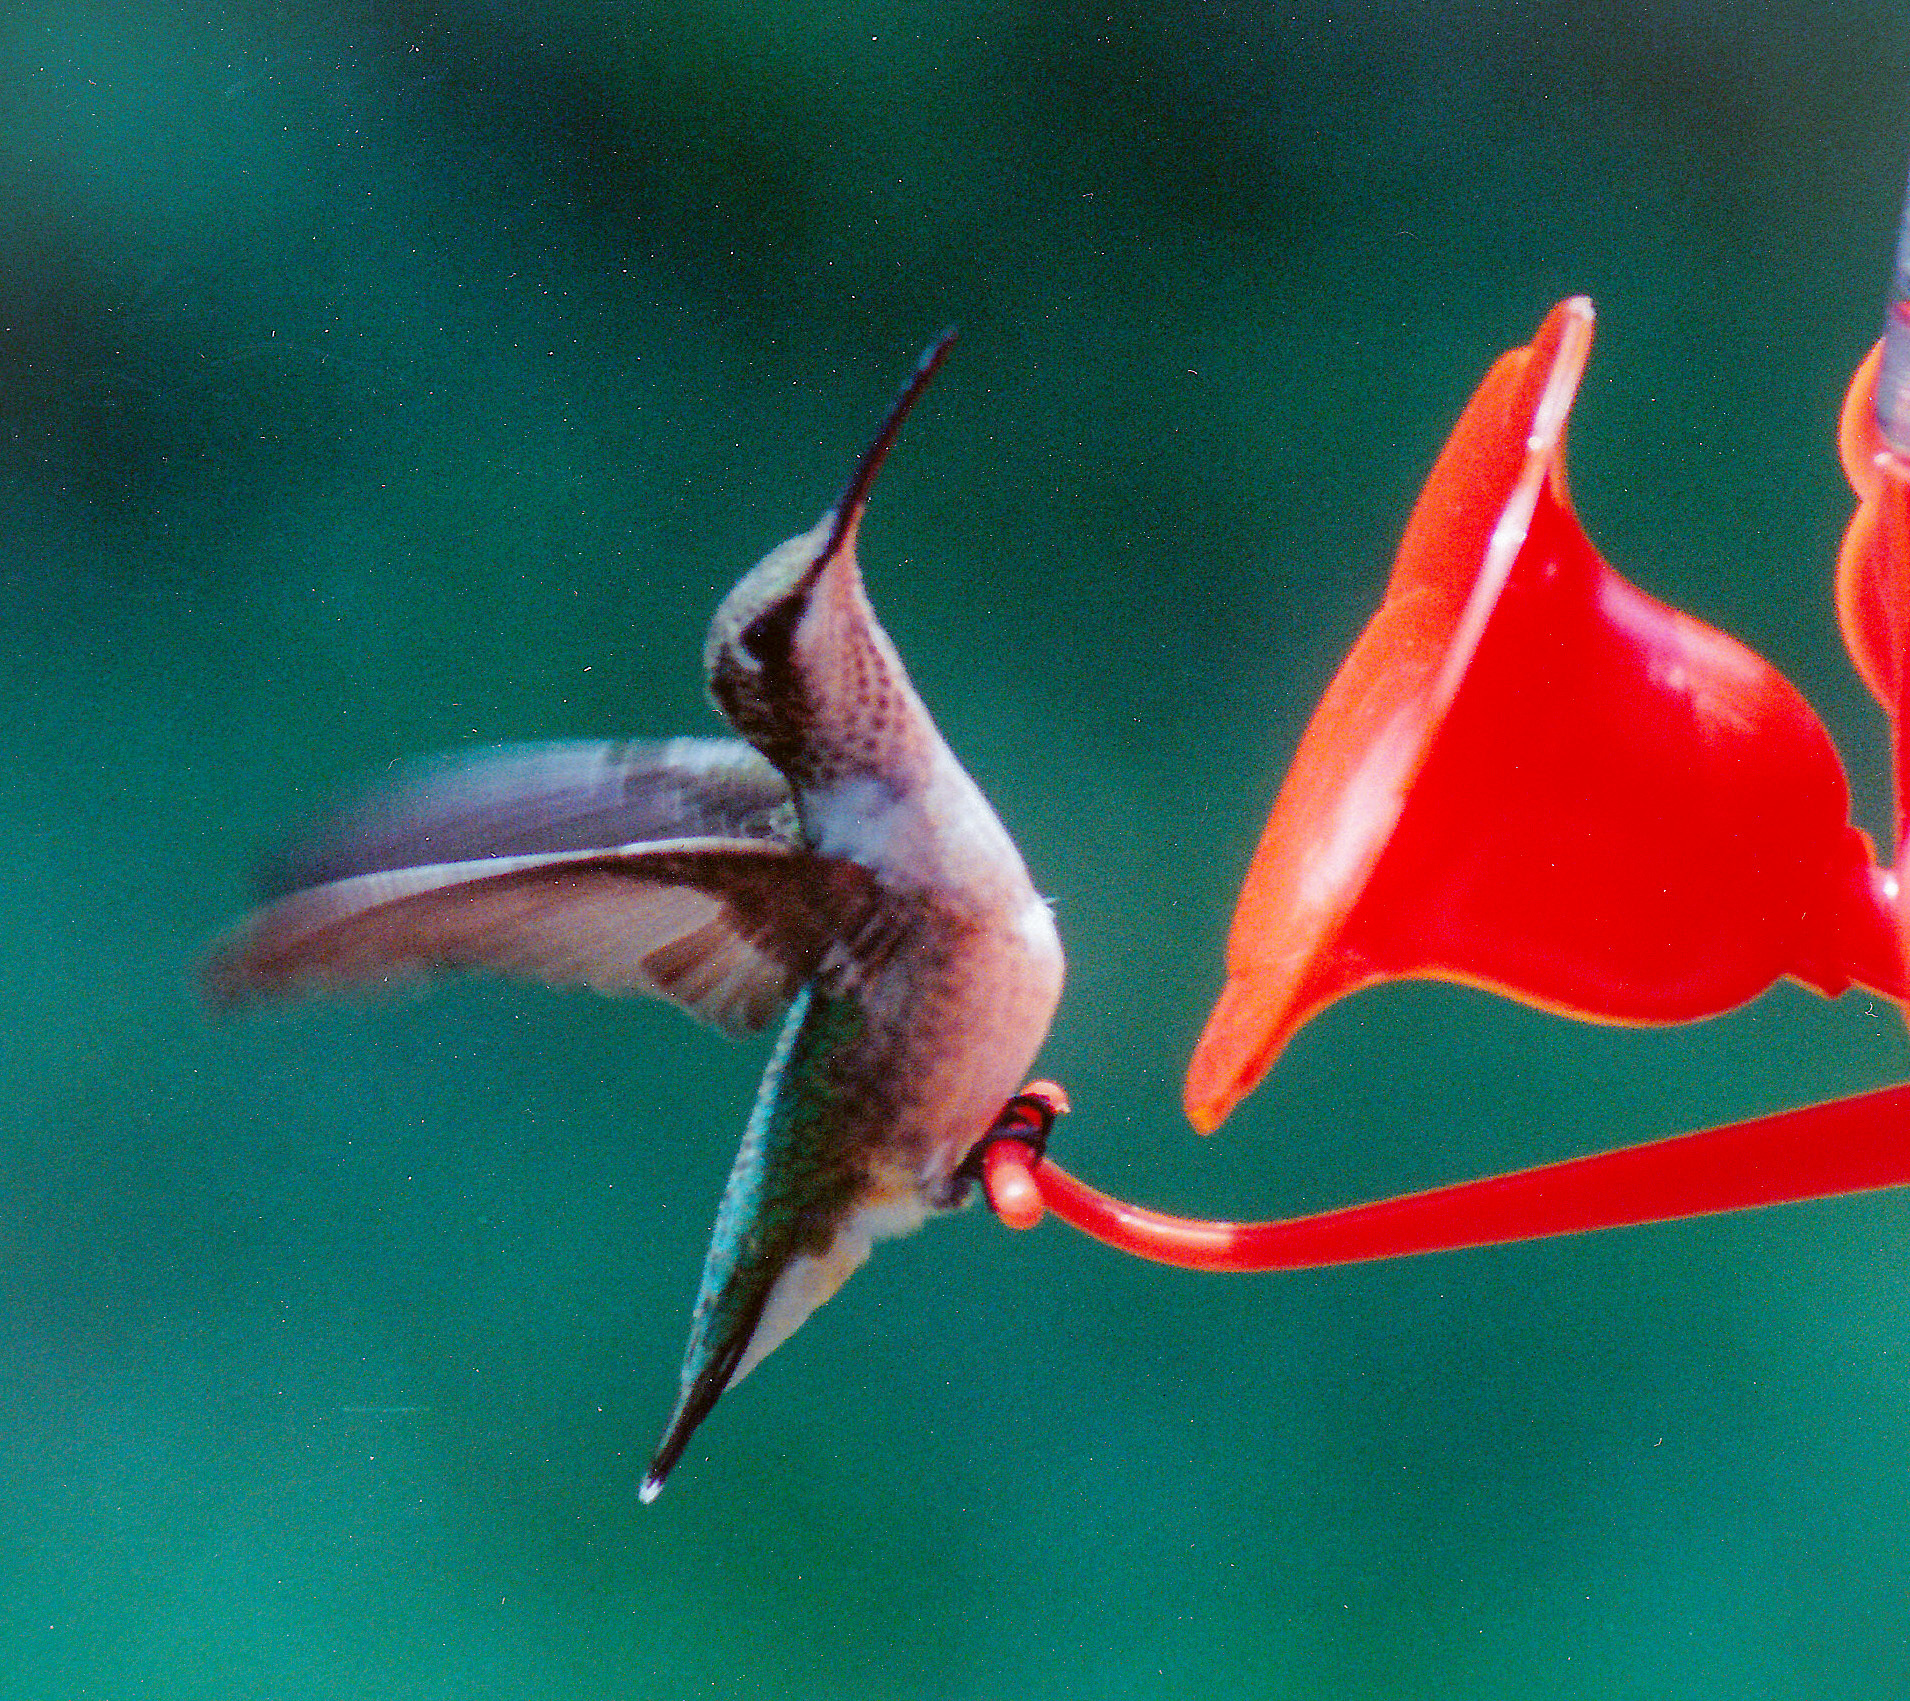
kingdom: Animalia
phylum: Chordata
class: Aves
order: Apodiformes
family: Trochilidae
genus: Archilochus
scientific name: Archilochus colubris
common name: Ruby-throated hummingbird
